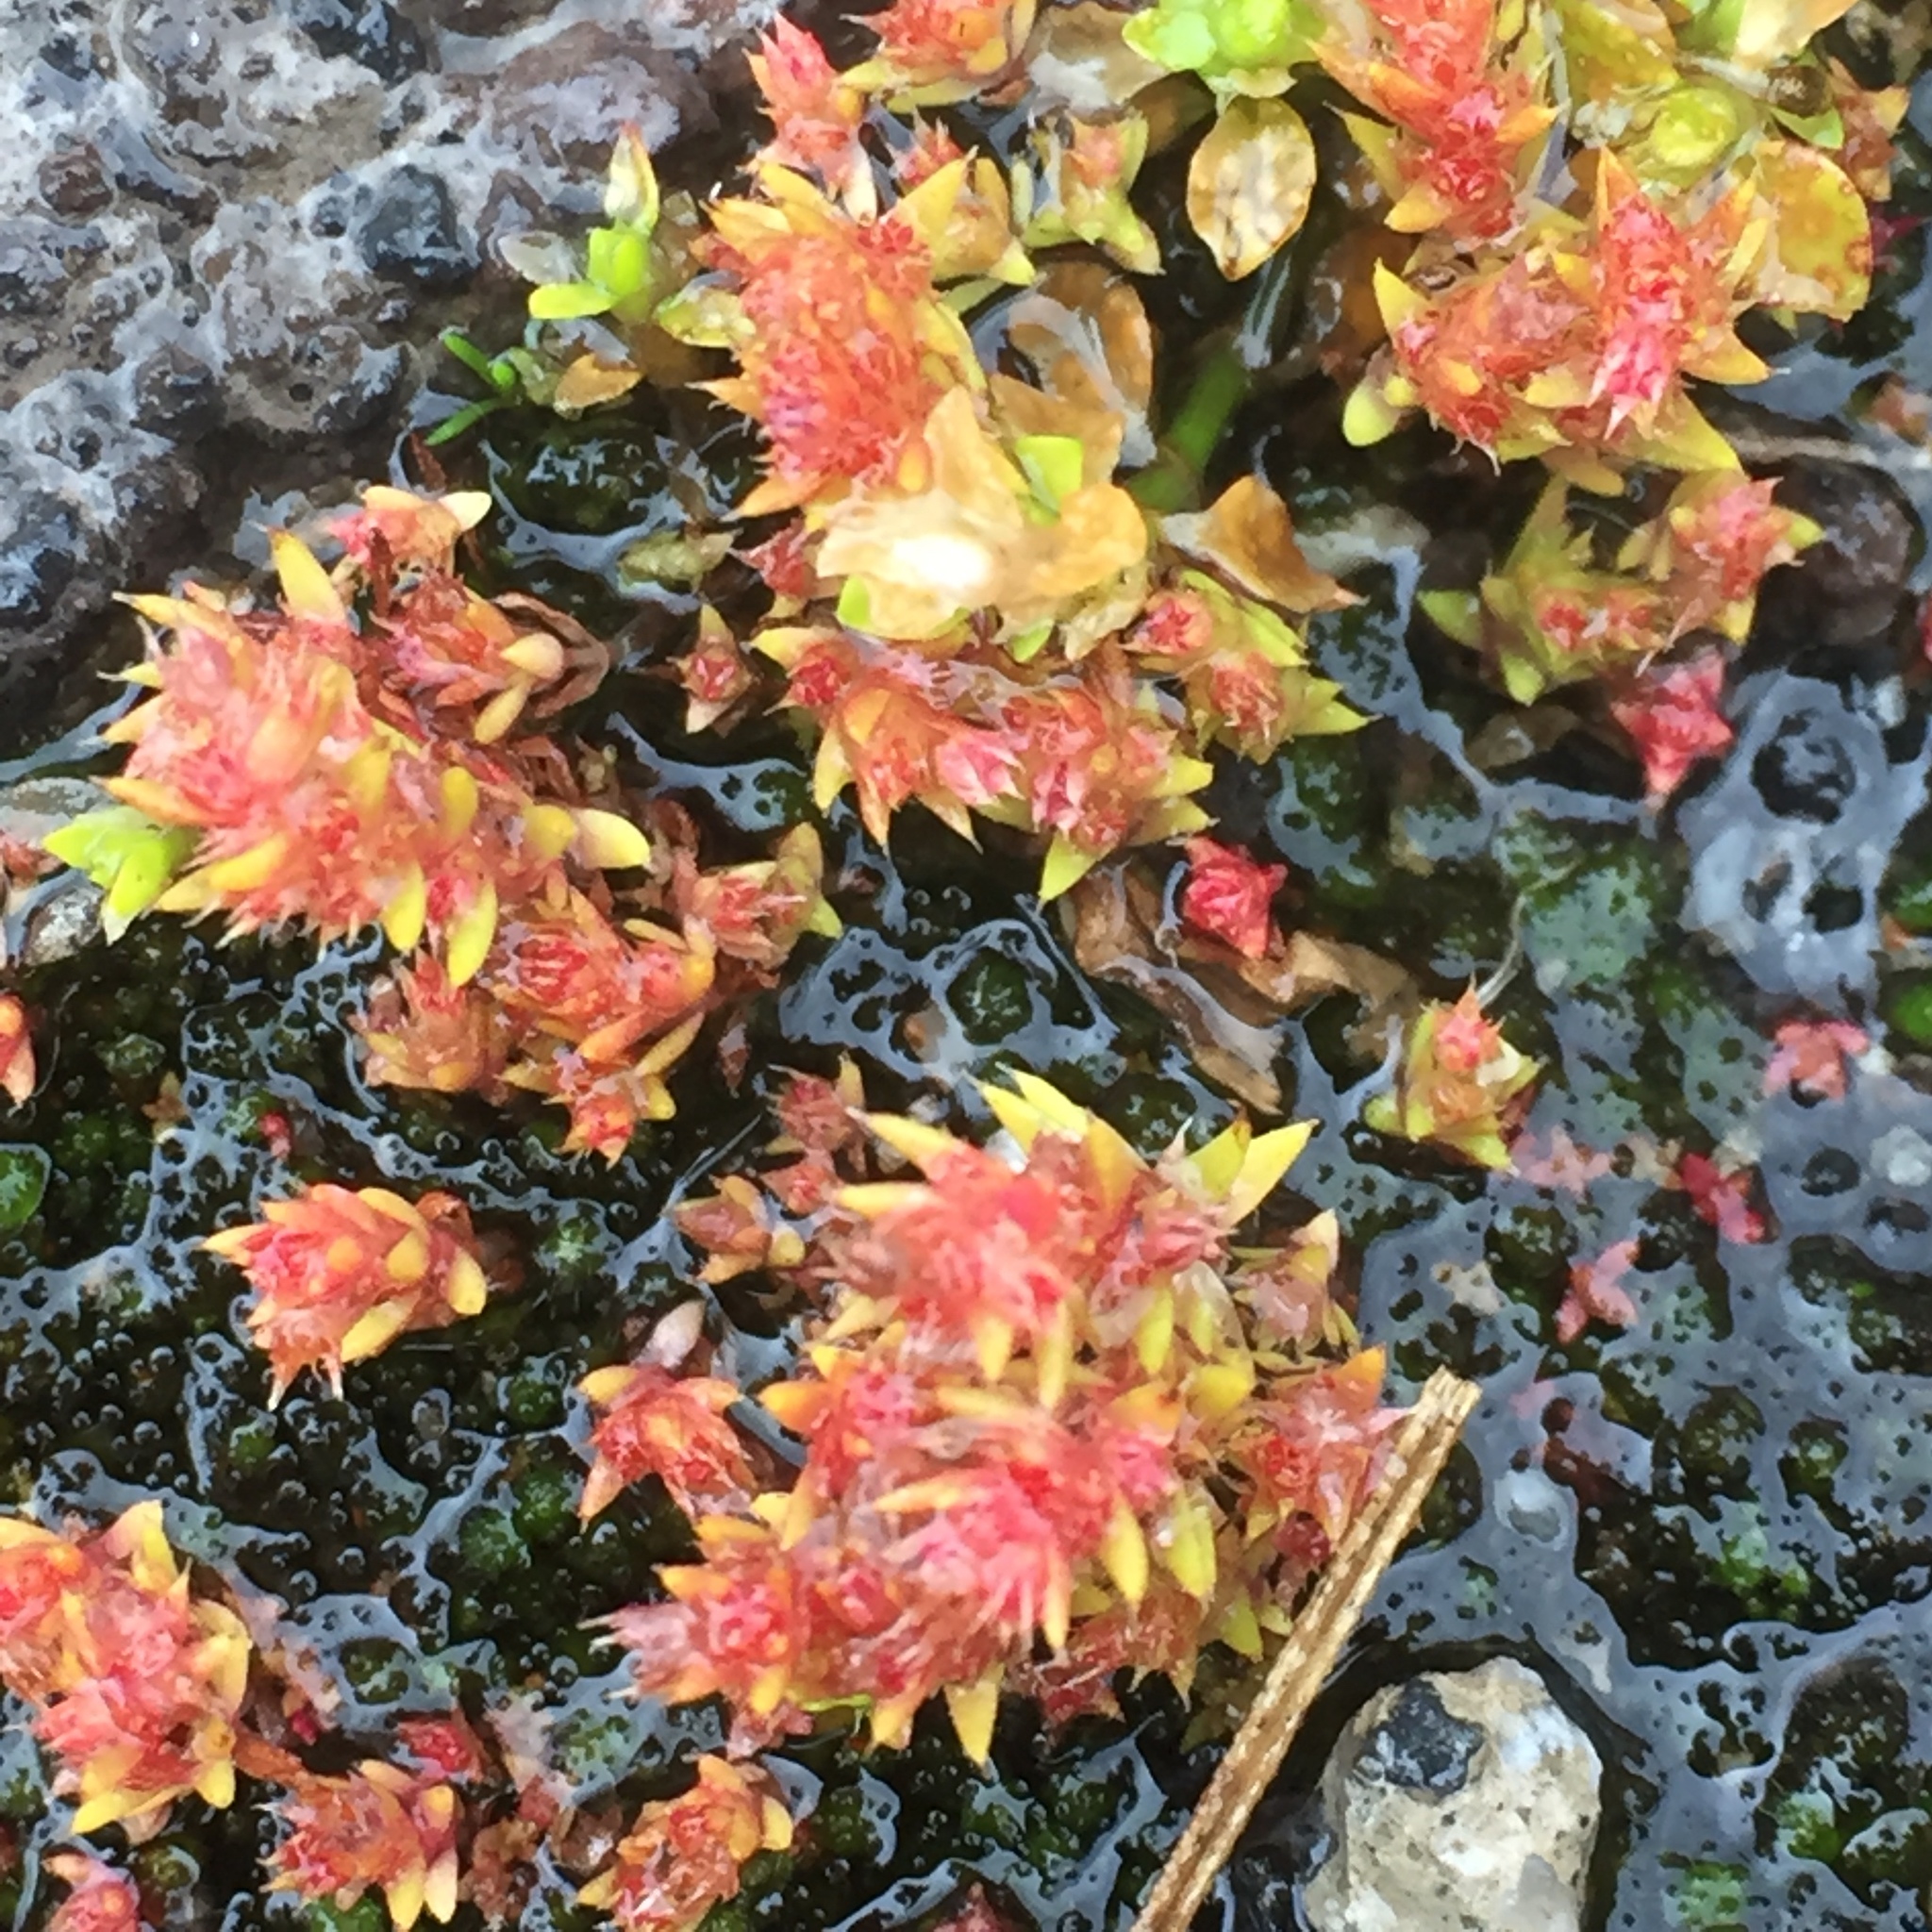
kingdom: Plantae
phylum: Tracheophyta
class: Magnoliopsida
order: Saxifragales
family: Crassulaceae
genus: Crassula
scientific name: Crassula tillaea
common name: Mossy stonecrop
